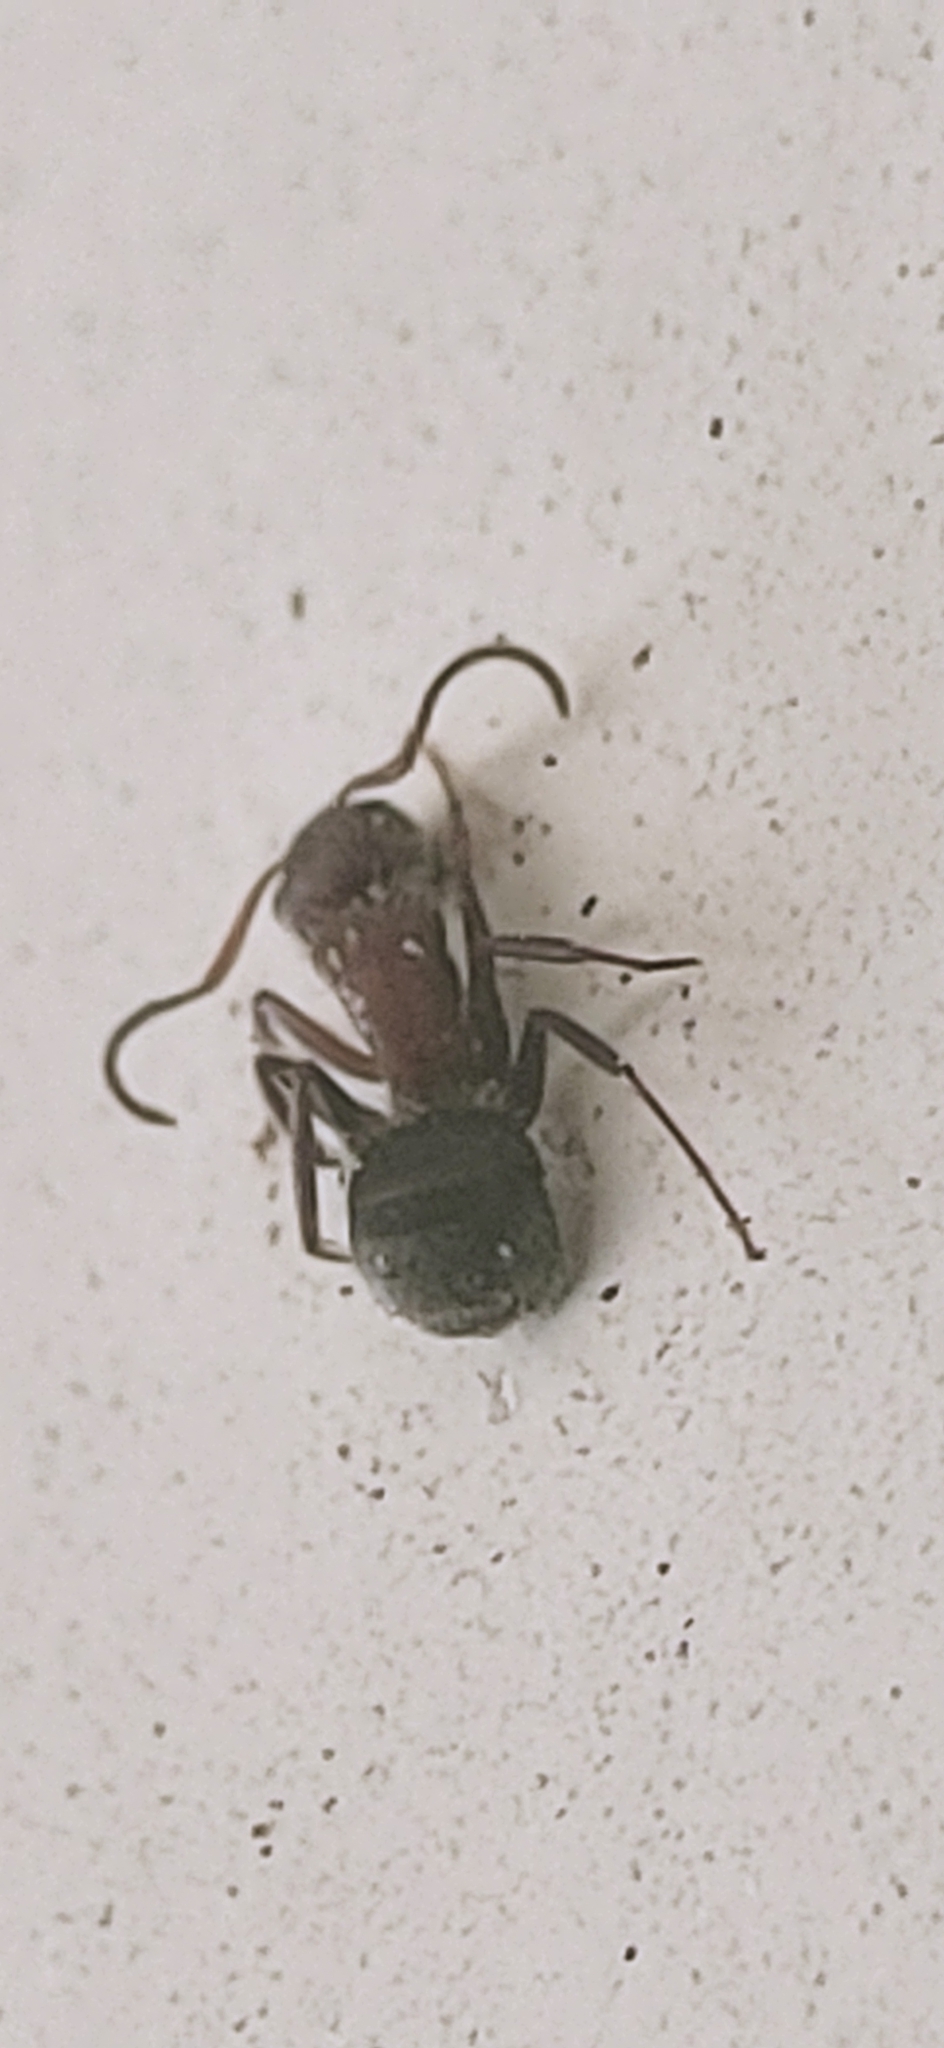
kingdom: Animalia
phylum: Arthropoda
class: Insecta
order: Hymenoptera
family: Formicidae
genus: Camponotus
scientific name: Camponotus planatus
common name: Compact carpenter ant
